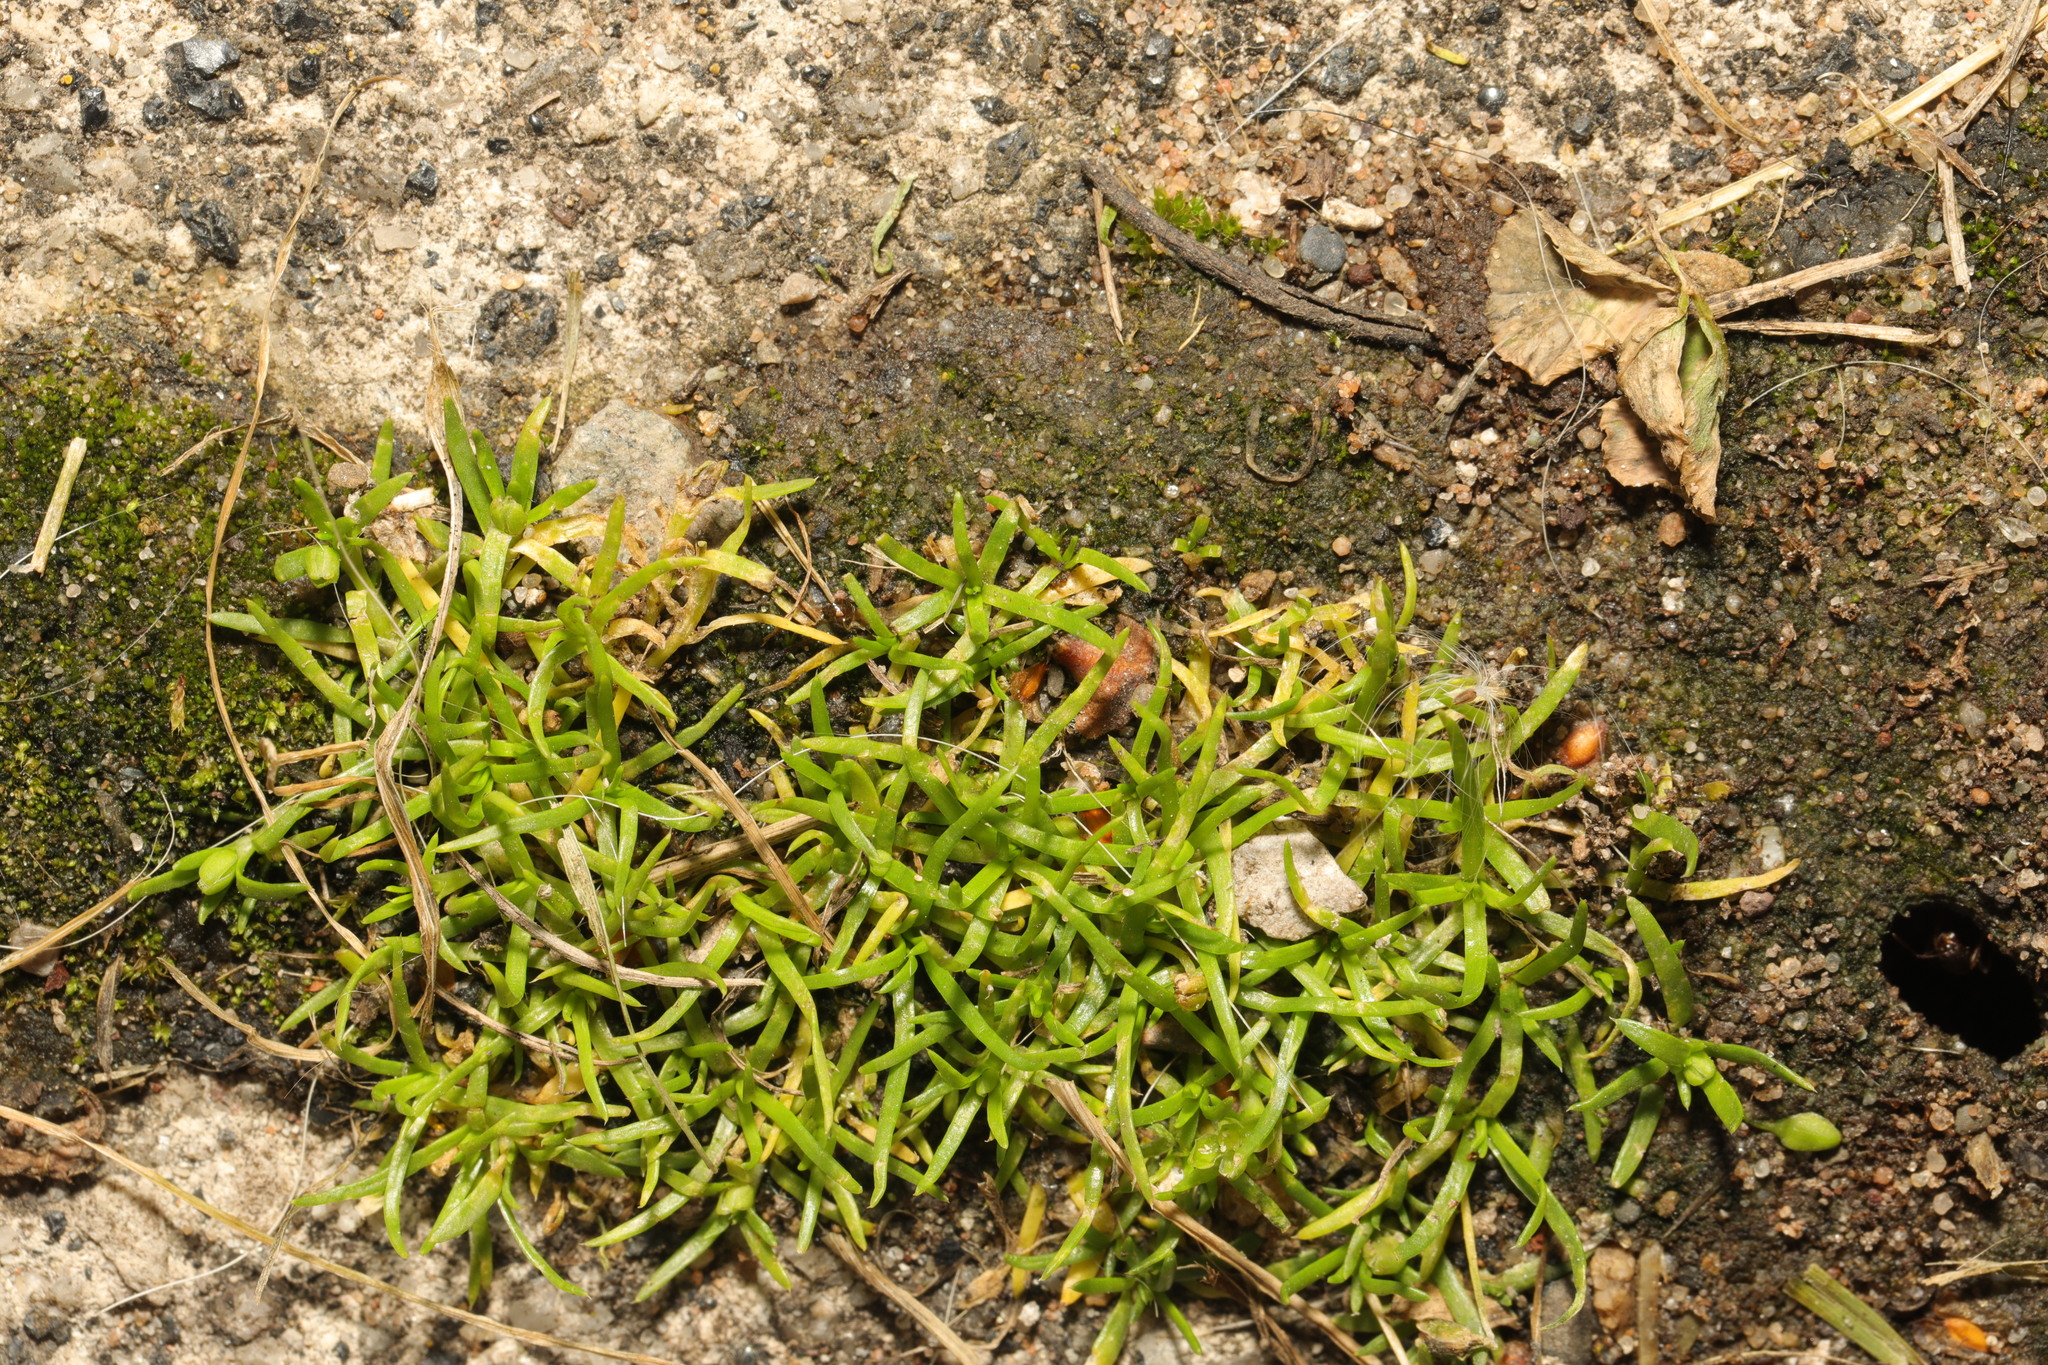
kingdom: Plantae
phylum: Tracheophyta
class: Magnoliopsida
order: Caryophyllales
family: Caryophyllaceae
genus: Sagina
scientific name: Sagina procumbens
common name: Procumbent pearlwort
